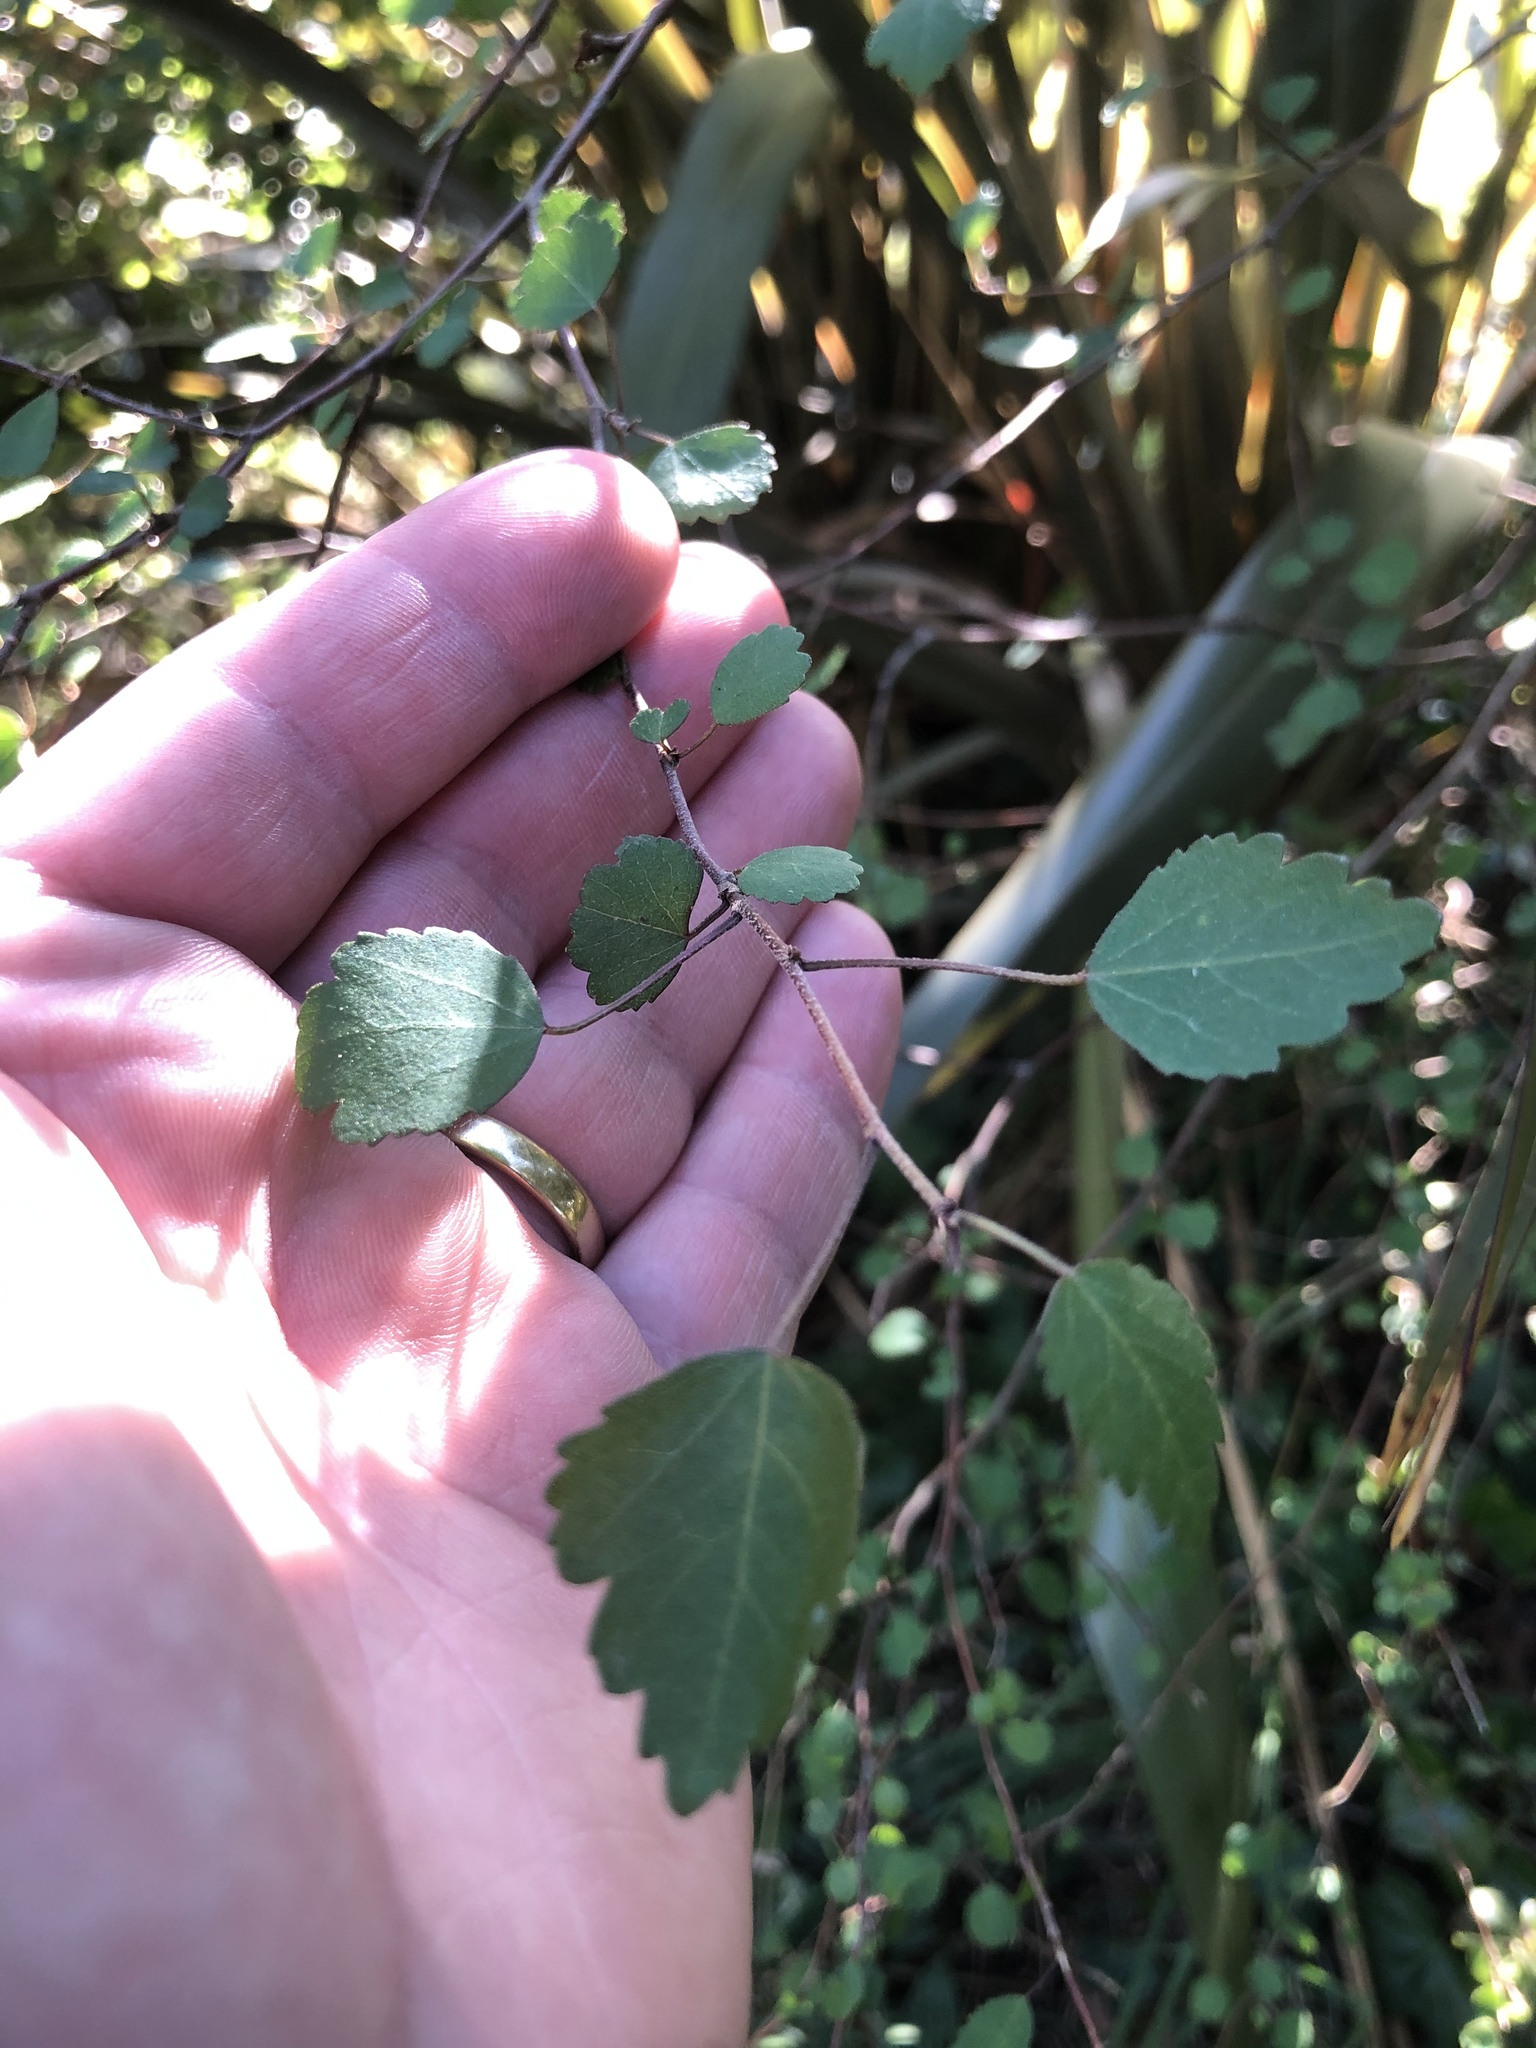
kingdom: Plantae
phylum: Tracheophyta
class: Magnoliopsida
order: Malvales
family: Malvaceae
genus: Plagianthus
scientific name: Plagianthus regius
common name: Manatu
